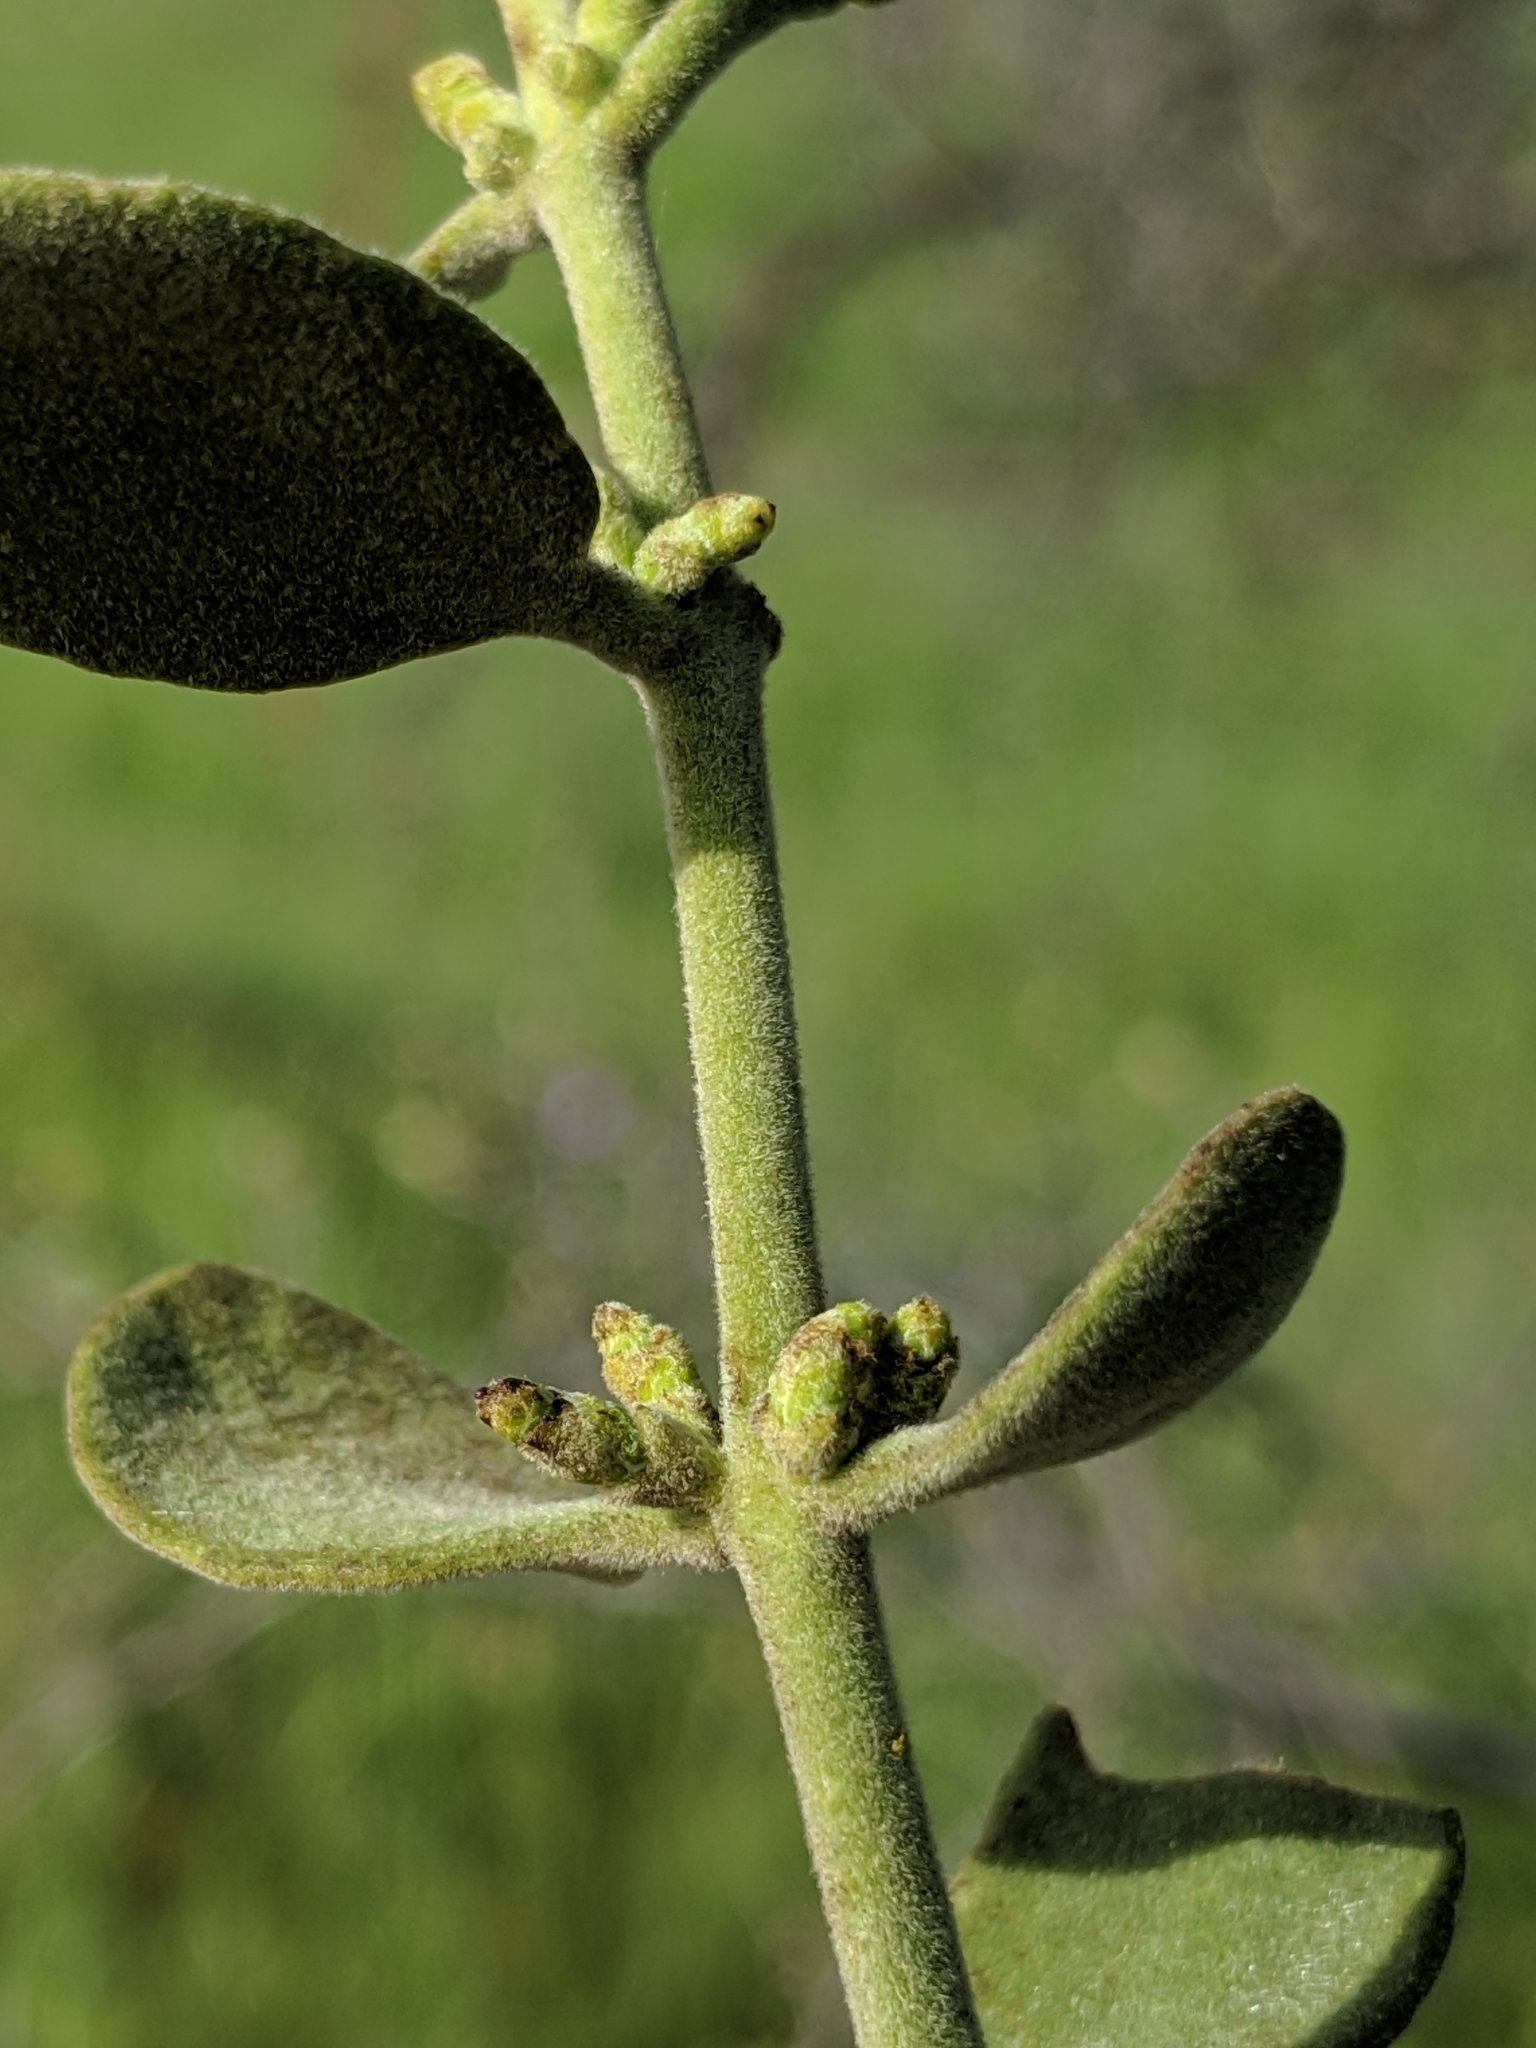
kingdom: Plantae
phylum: Tracheophyta
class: Magnoliopsida
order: Santalales
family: Viscaceae
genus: Phoradendron
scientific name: Phoradendron leucarpum
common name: Pacific mistletoe
